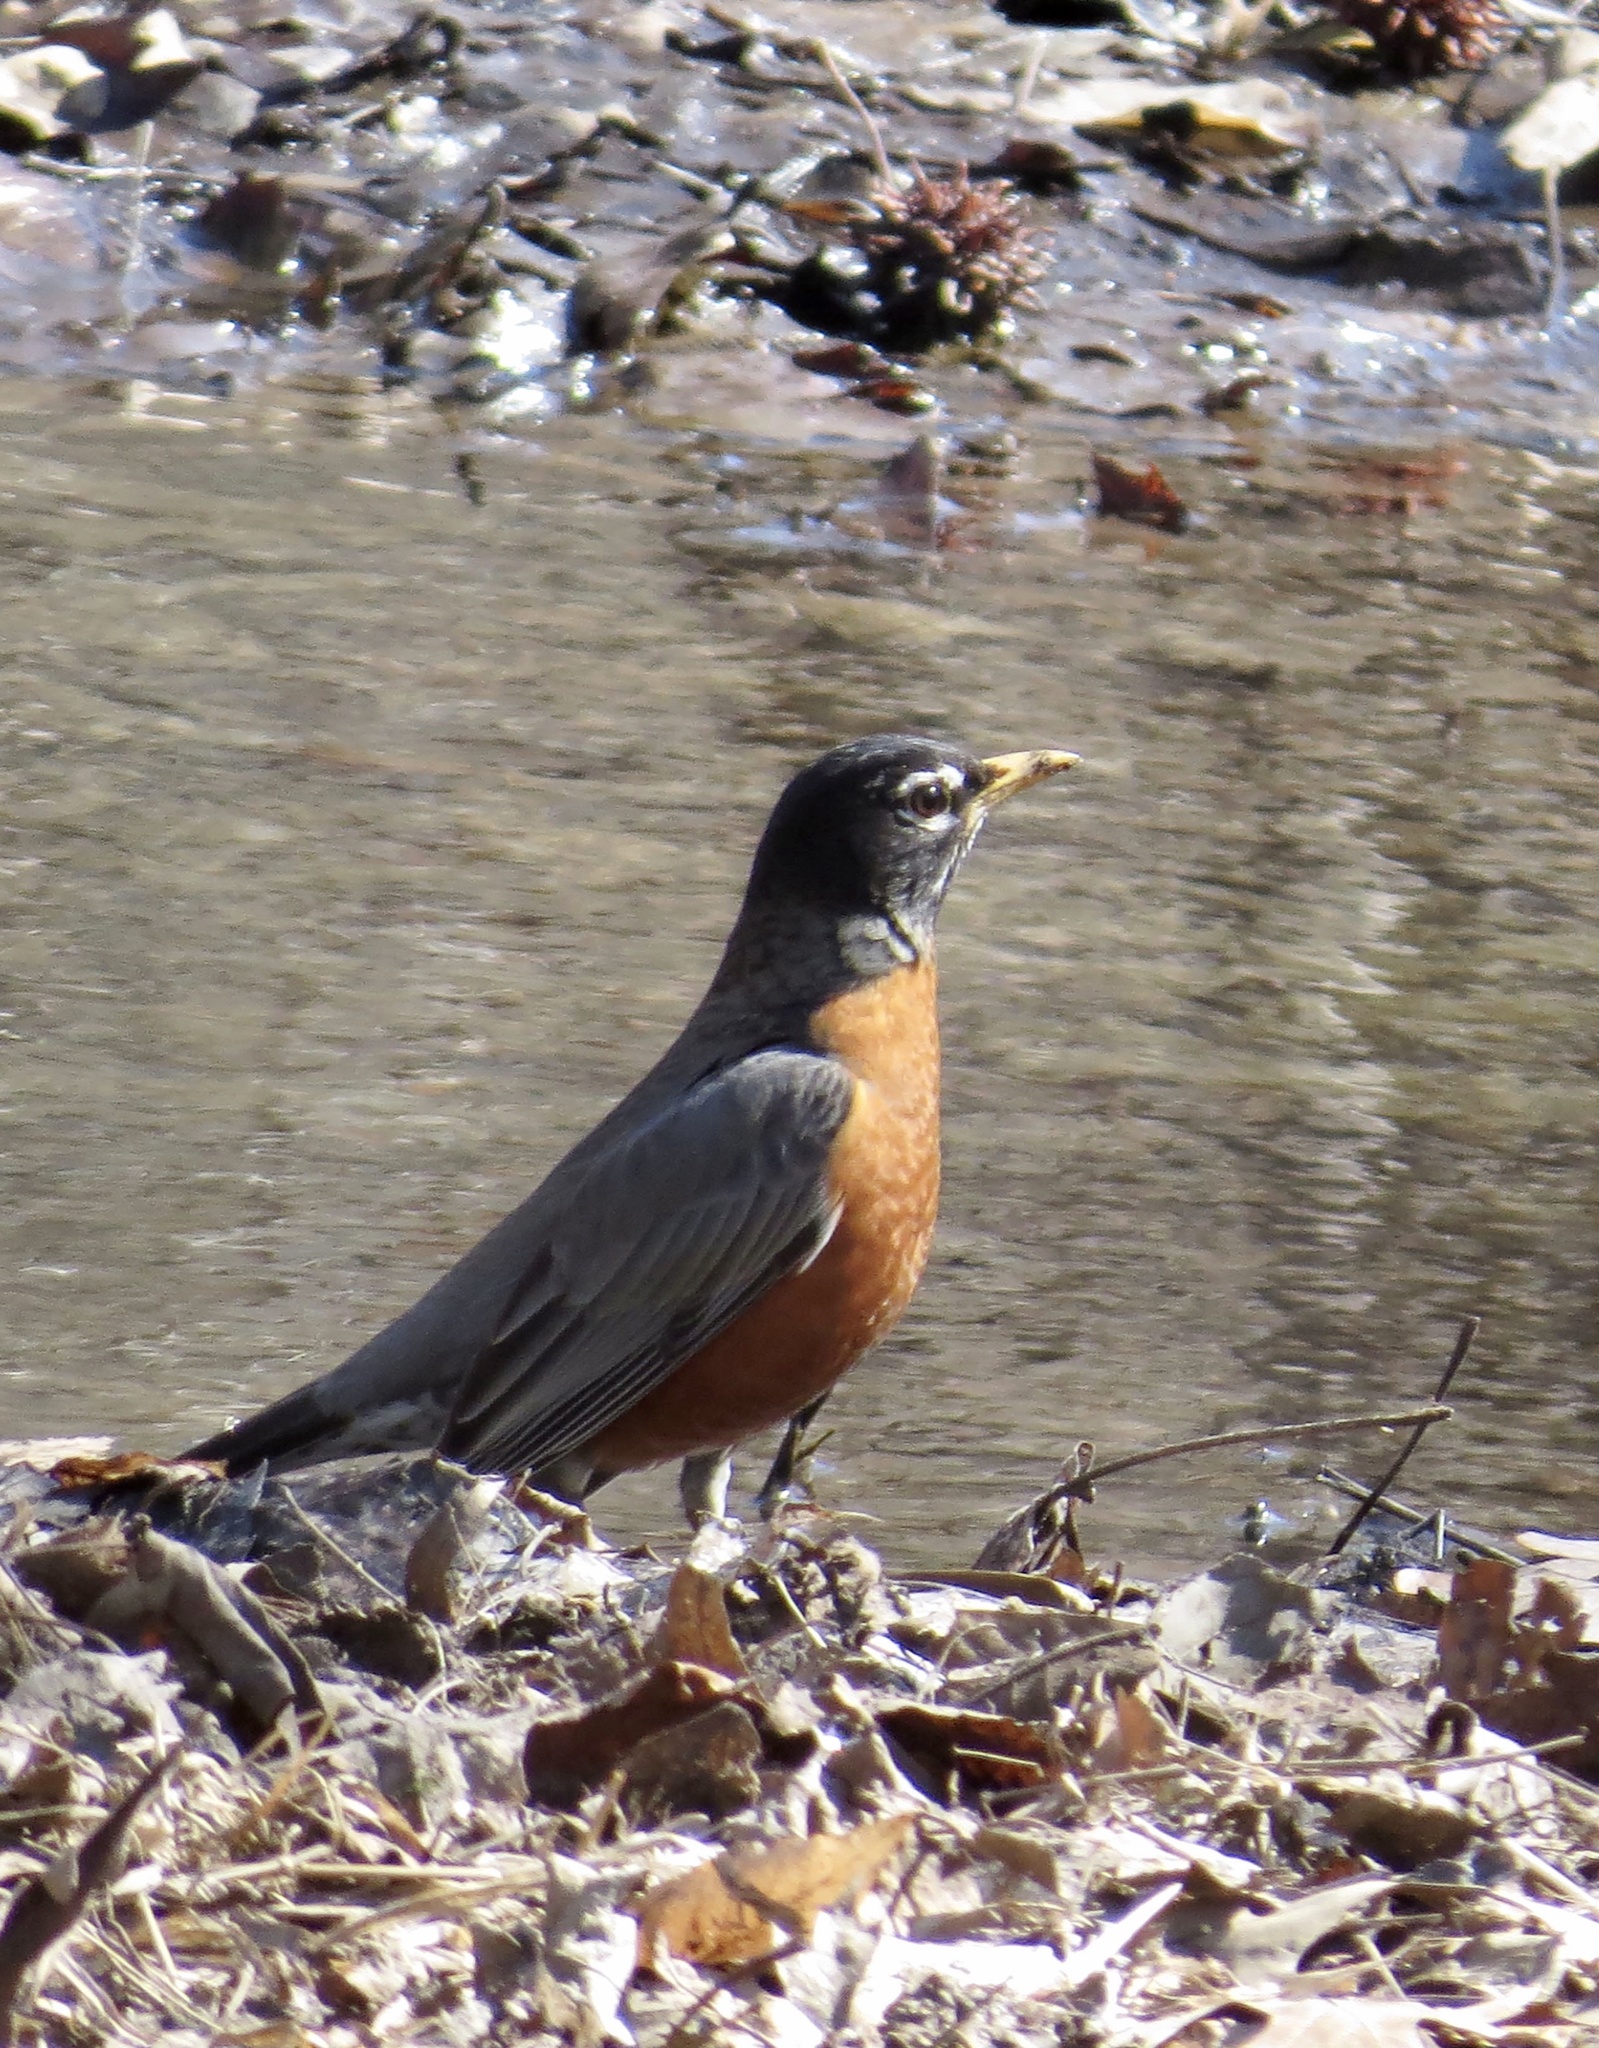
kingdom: Animalia
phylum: Chordata
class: Aves
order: Passeriformes
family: Turdidae
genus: Turdus
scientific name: Turdus migratorius
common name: American robin
